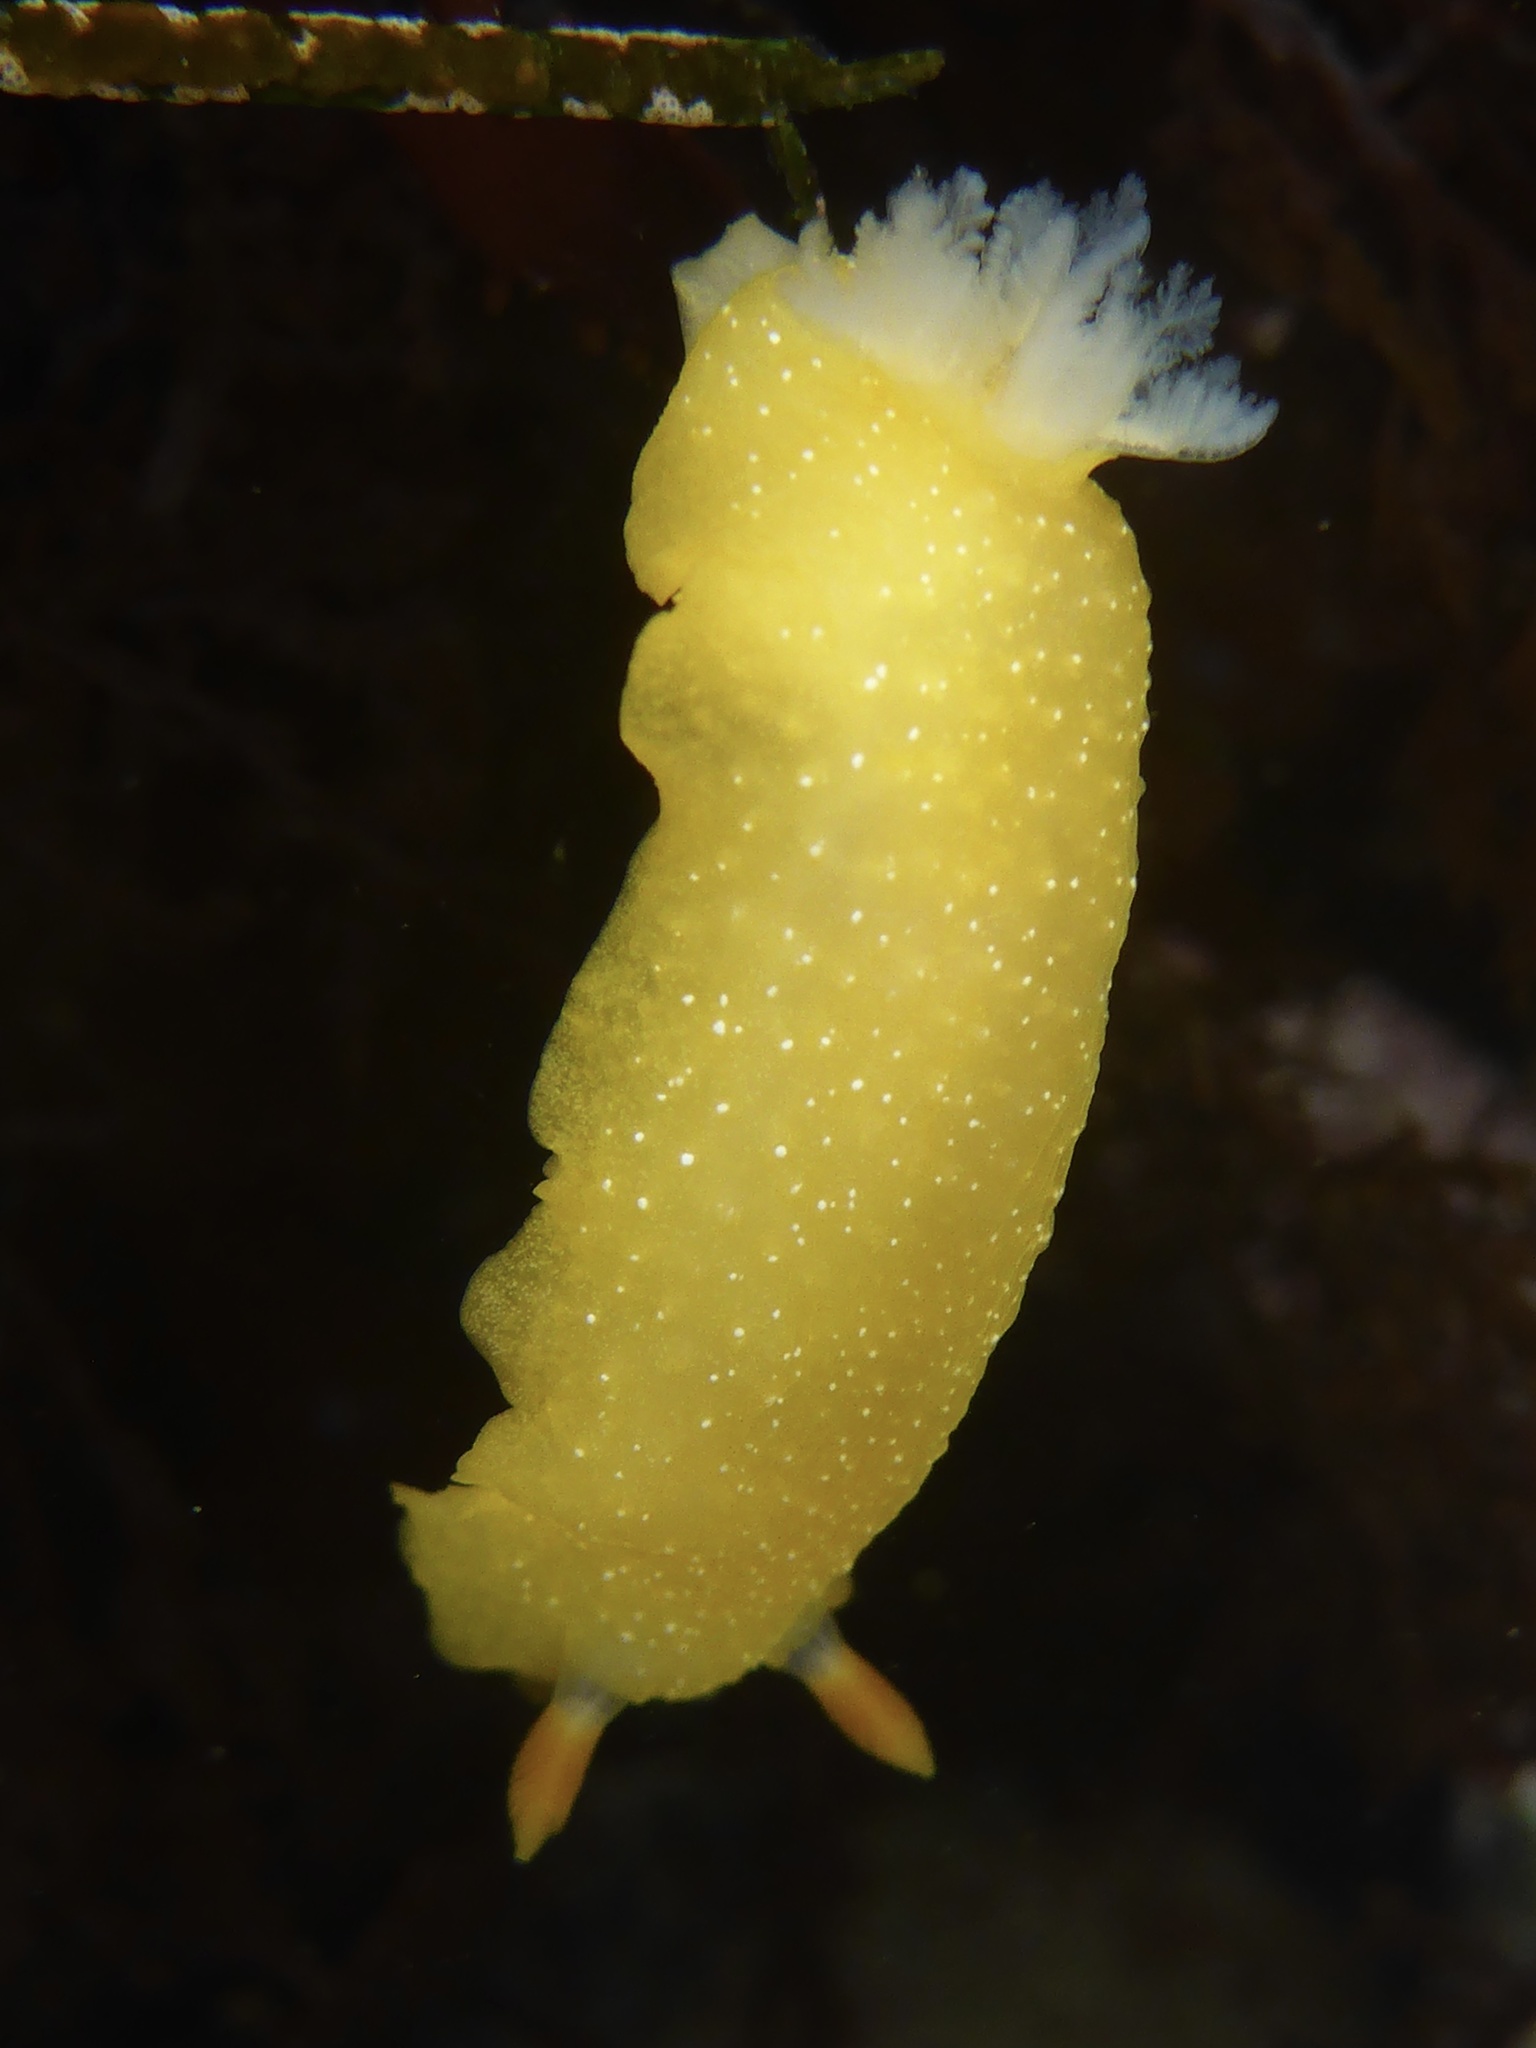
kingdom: Animalia
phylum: Mollusca
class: Gastropoda
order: Nudibranchia
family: Dendrodorididae
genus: Doriopsilla
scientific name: Doriopsilla fulva
